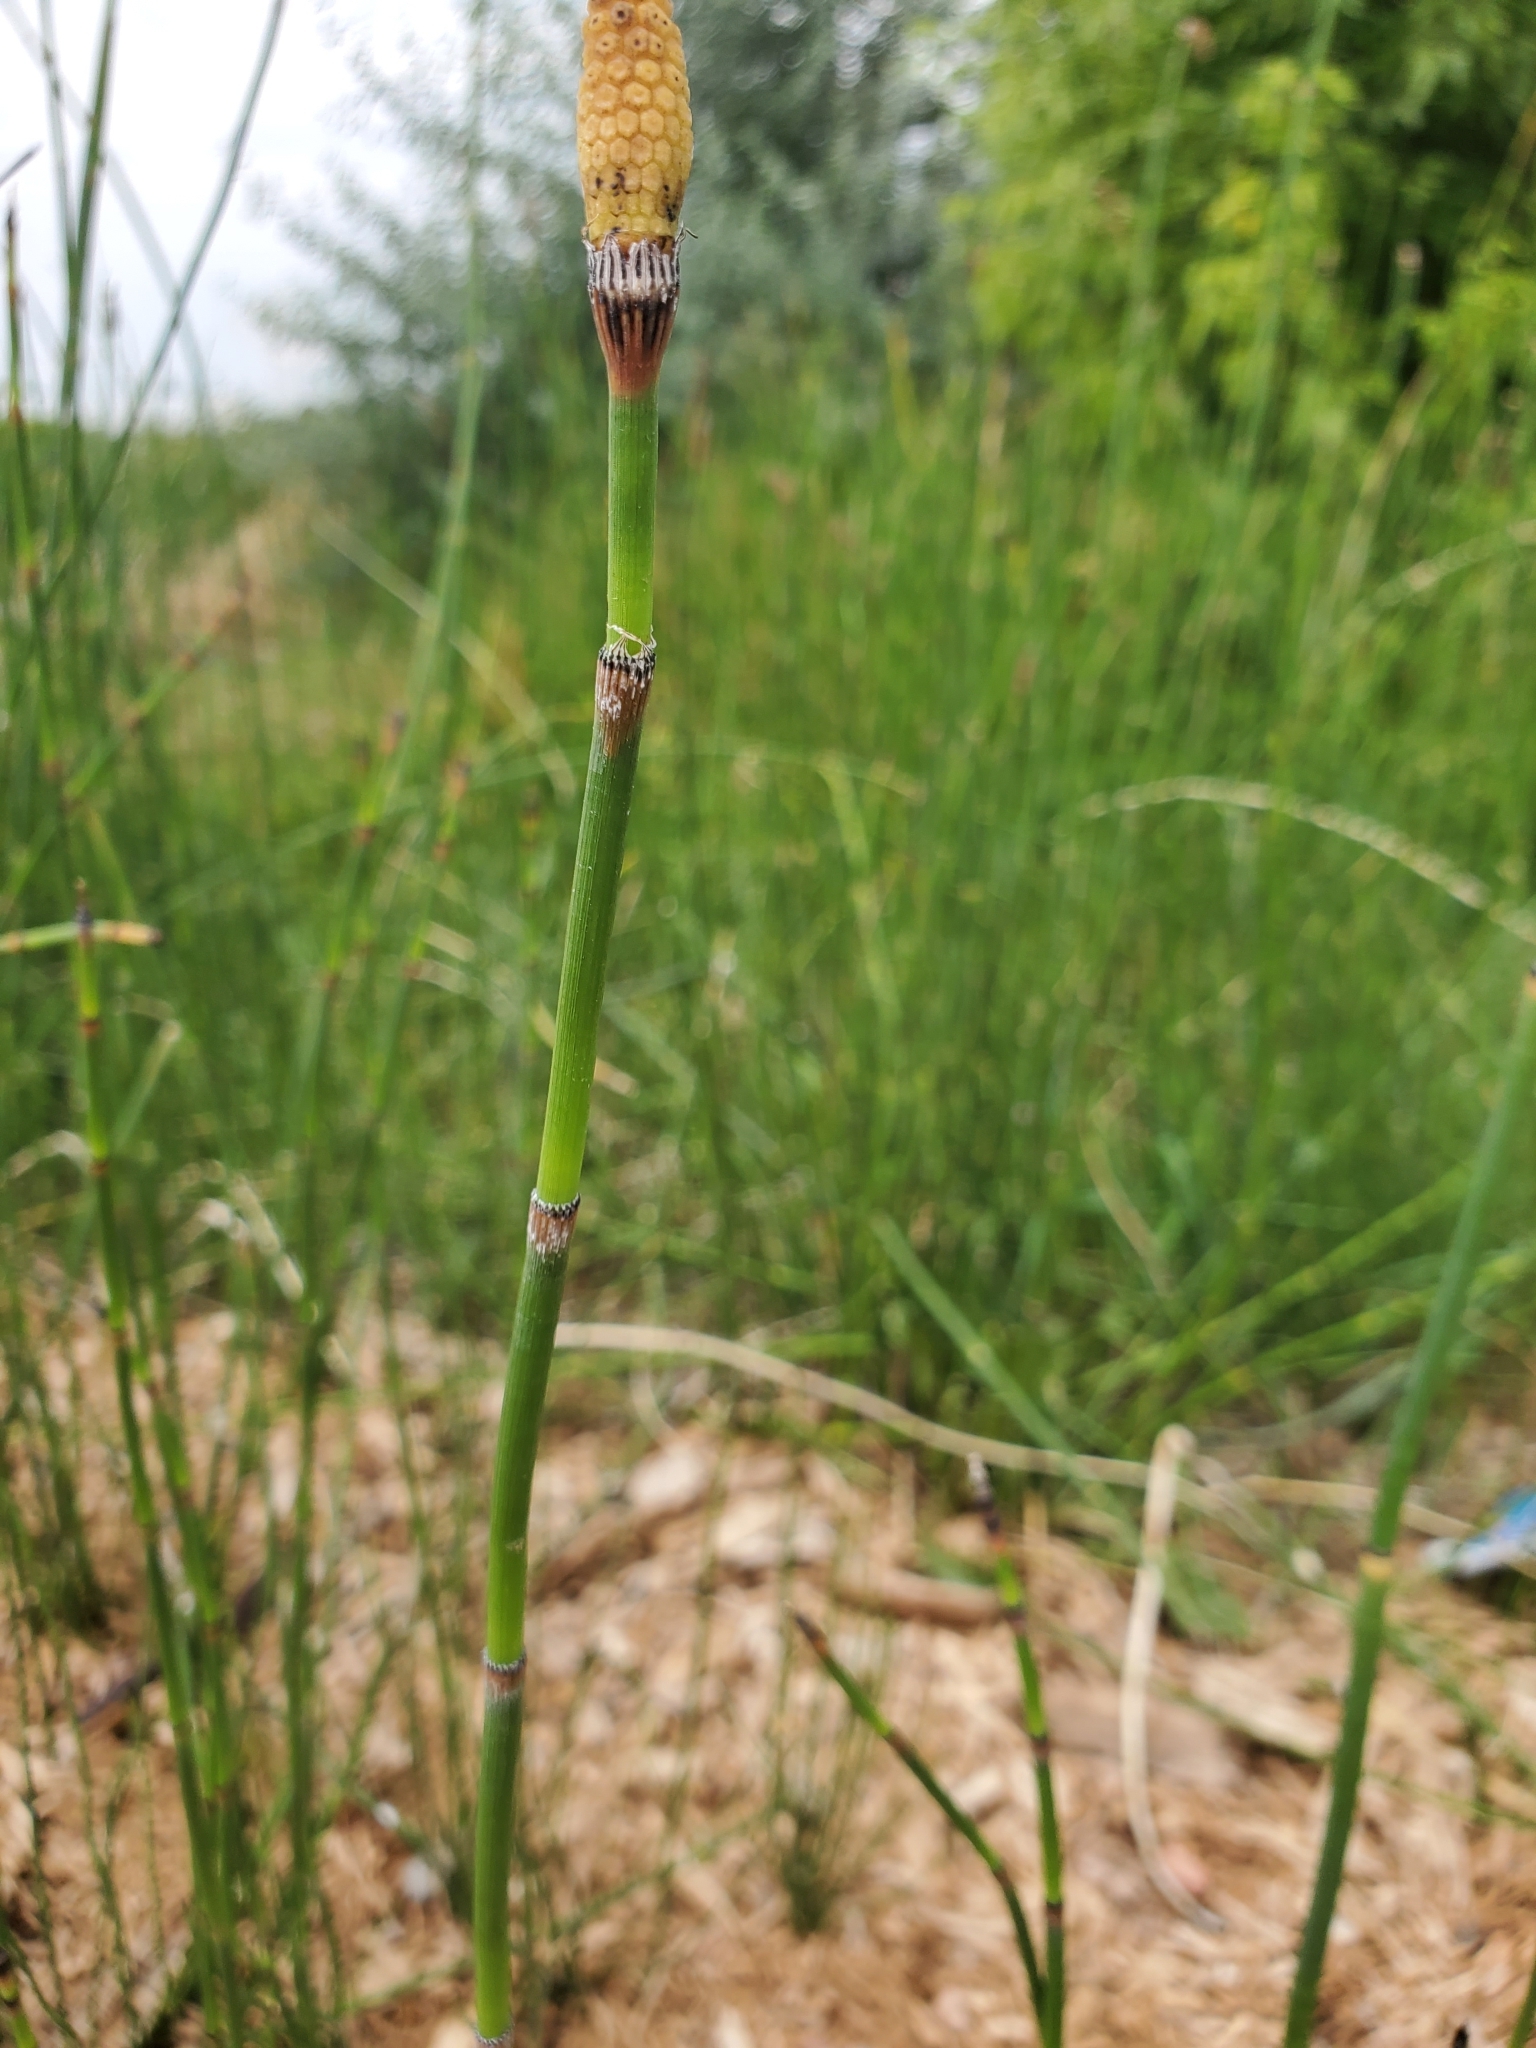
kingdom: Plantae
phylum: Tracheophyta
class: Polypodiopsida
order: Equisetales
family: Equisetaceae
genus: Equisetum
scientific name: Equisetum ferrissii
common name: Ferriss' horsetail
